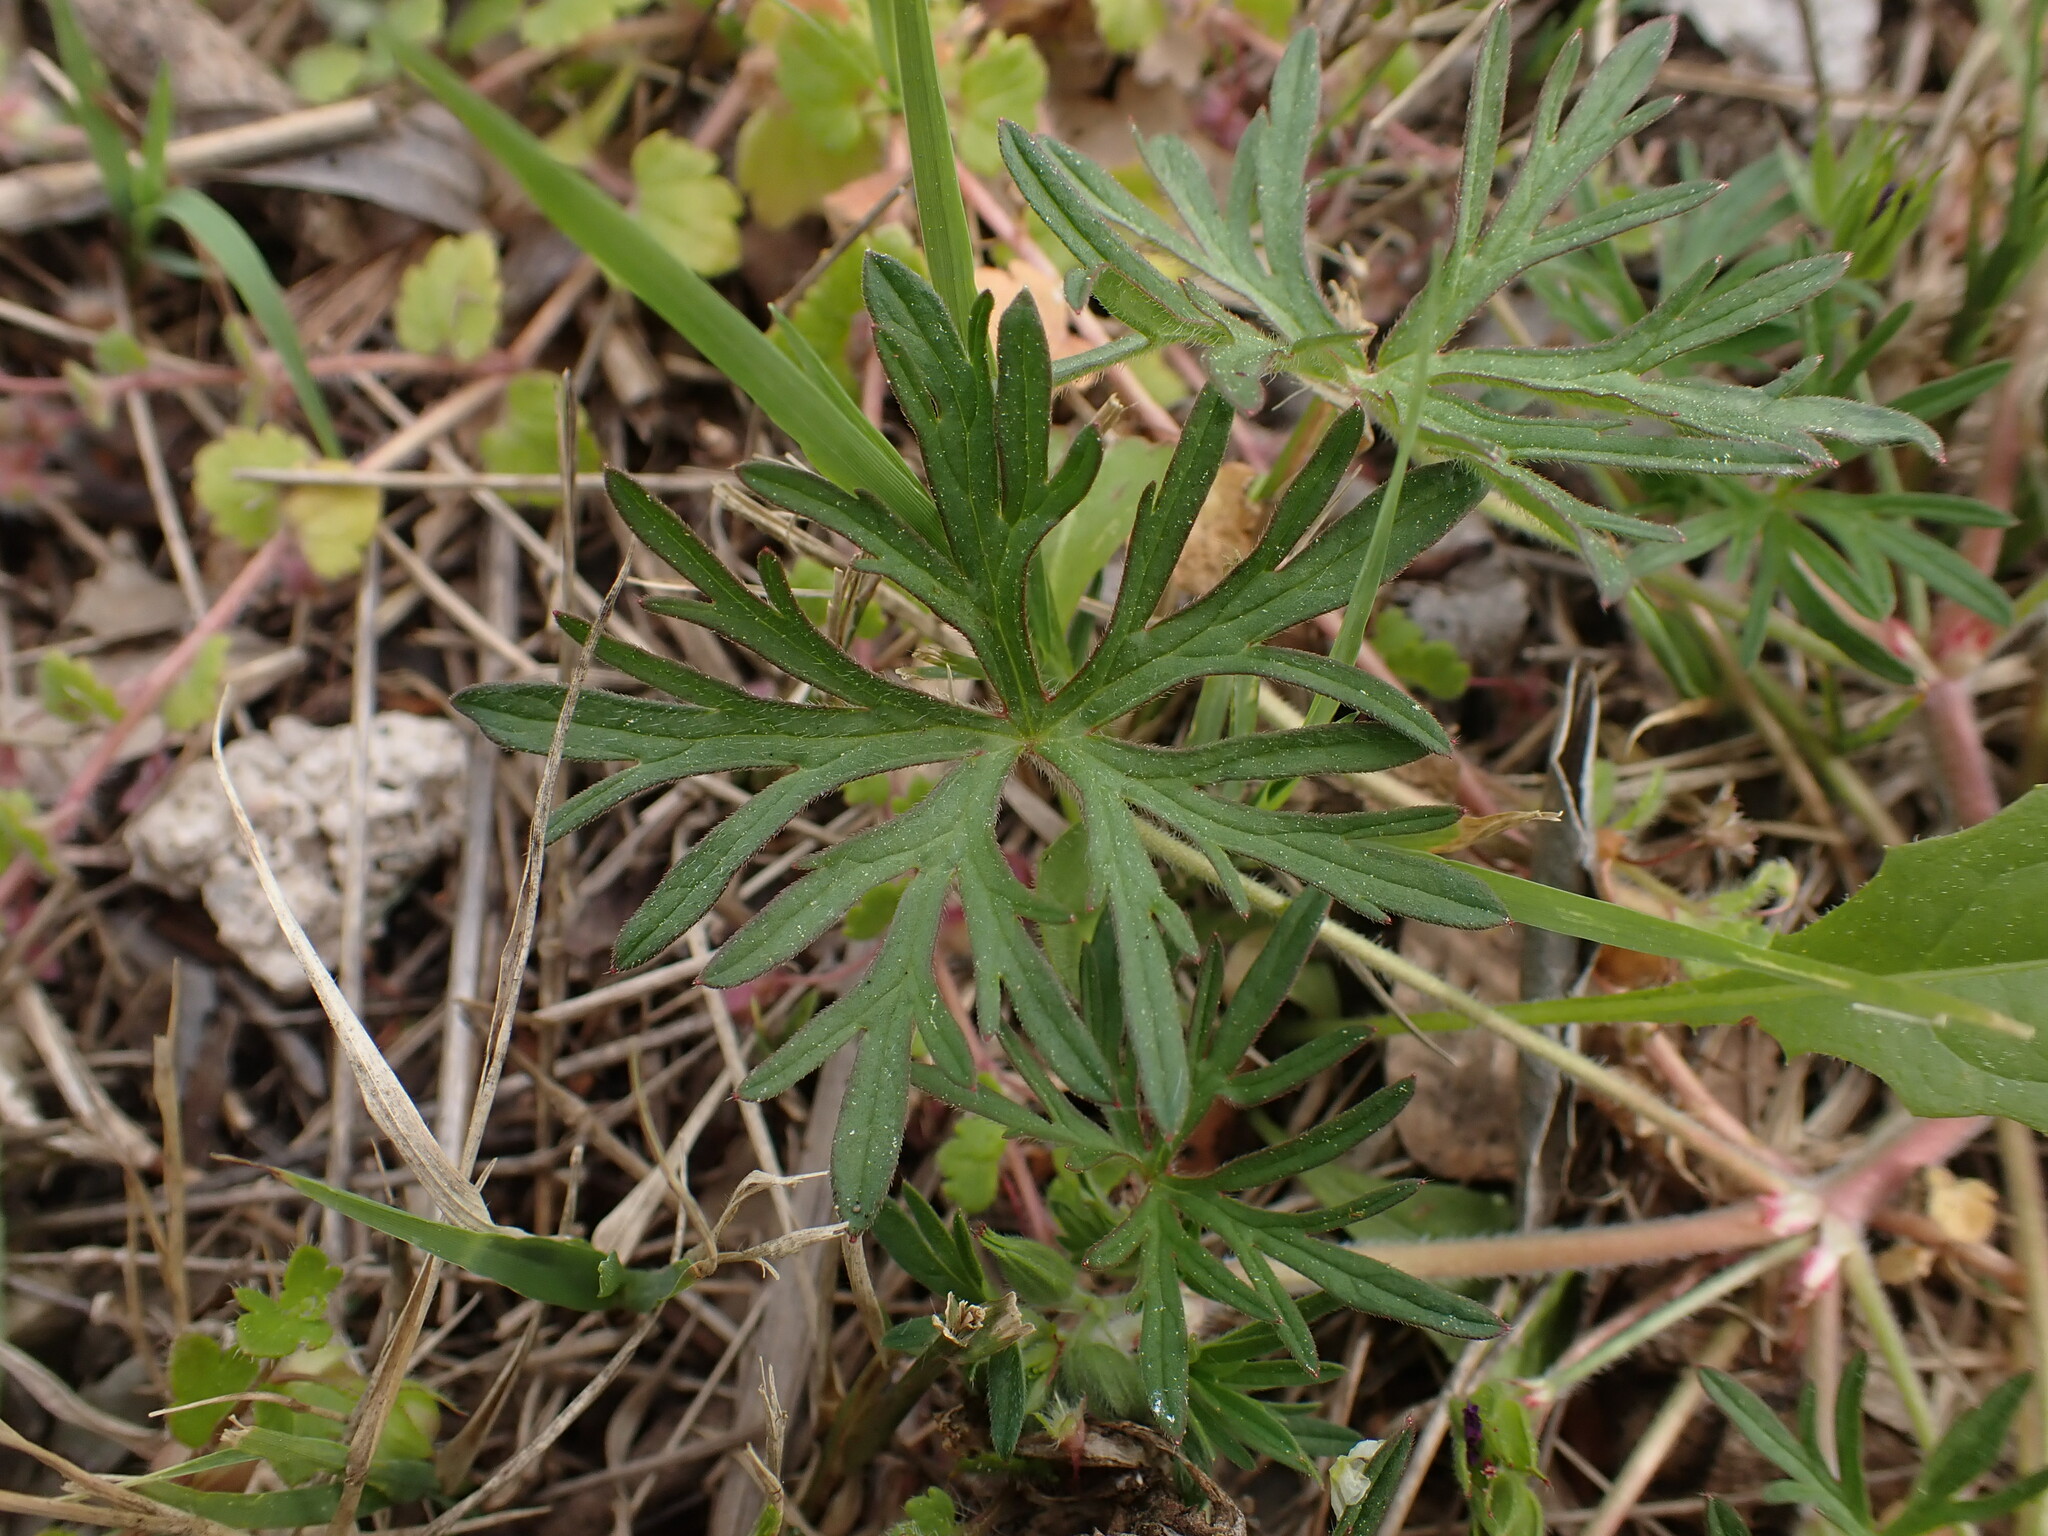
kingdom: Plantae
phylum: Tracheophyta
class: Magnoliopsida
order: Geraniales
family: Geraniaceae
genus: Geranium
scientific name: Geranium dissectum
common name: Cut-leaved crane's-bill
